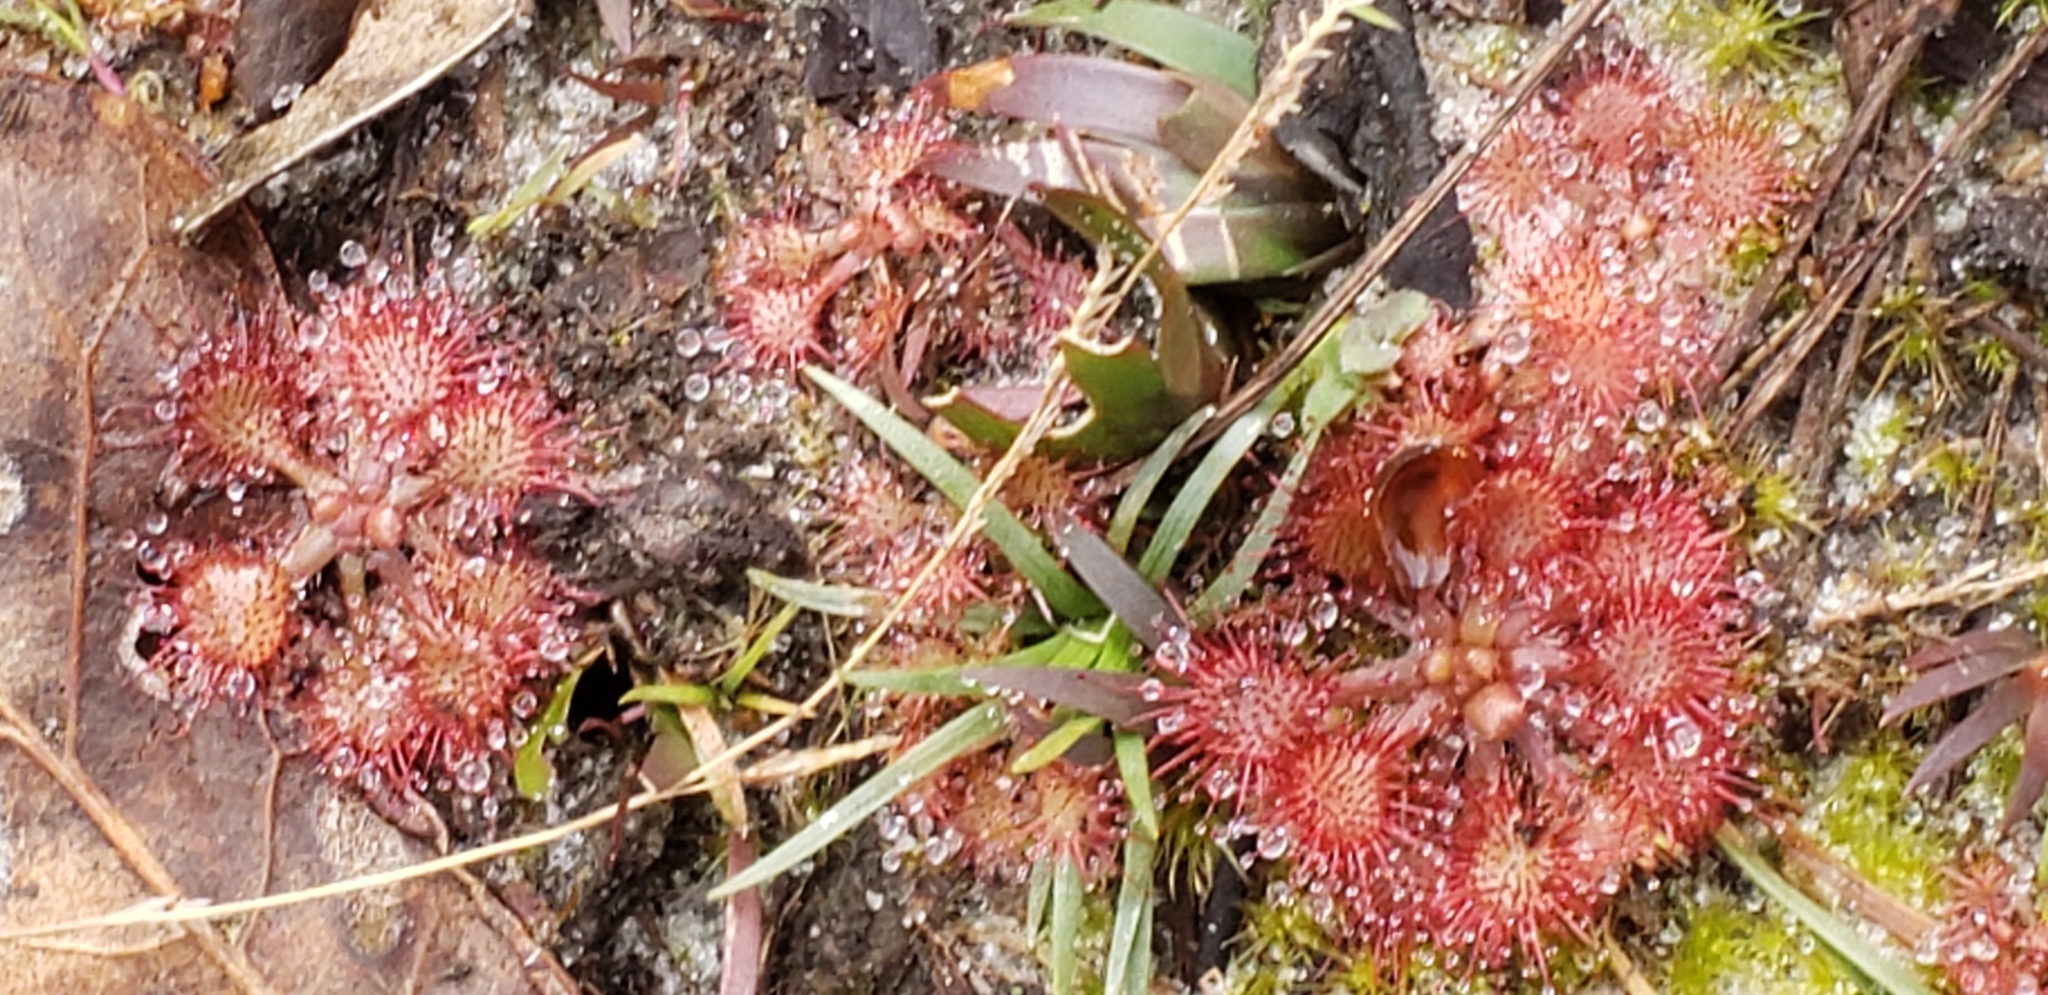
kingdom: Plantae
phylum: Tracheophyta
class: Magnoliopsida
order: Caryophyllales
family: Droseraceae
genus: Drosera
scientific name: Drosera capillaris
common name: Pink sundew
